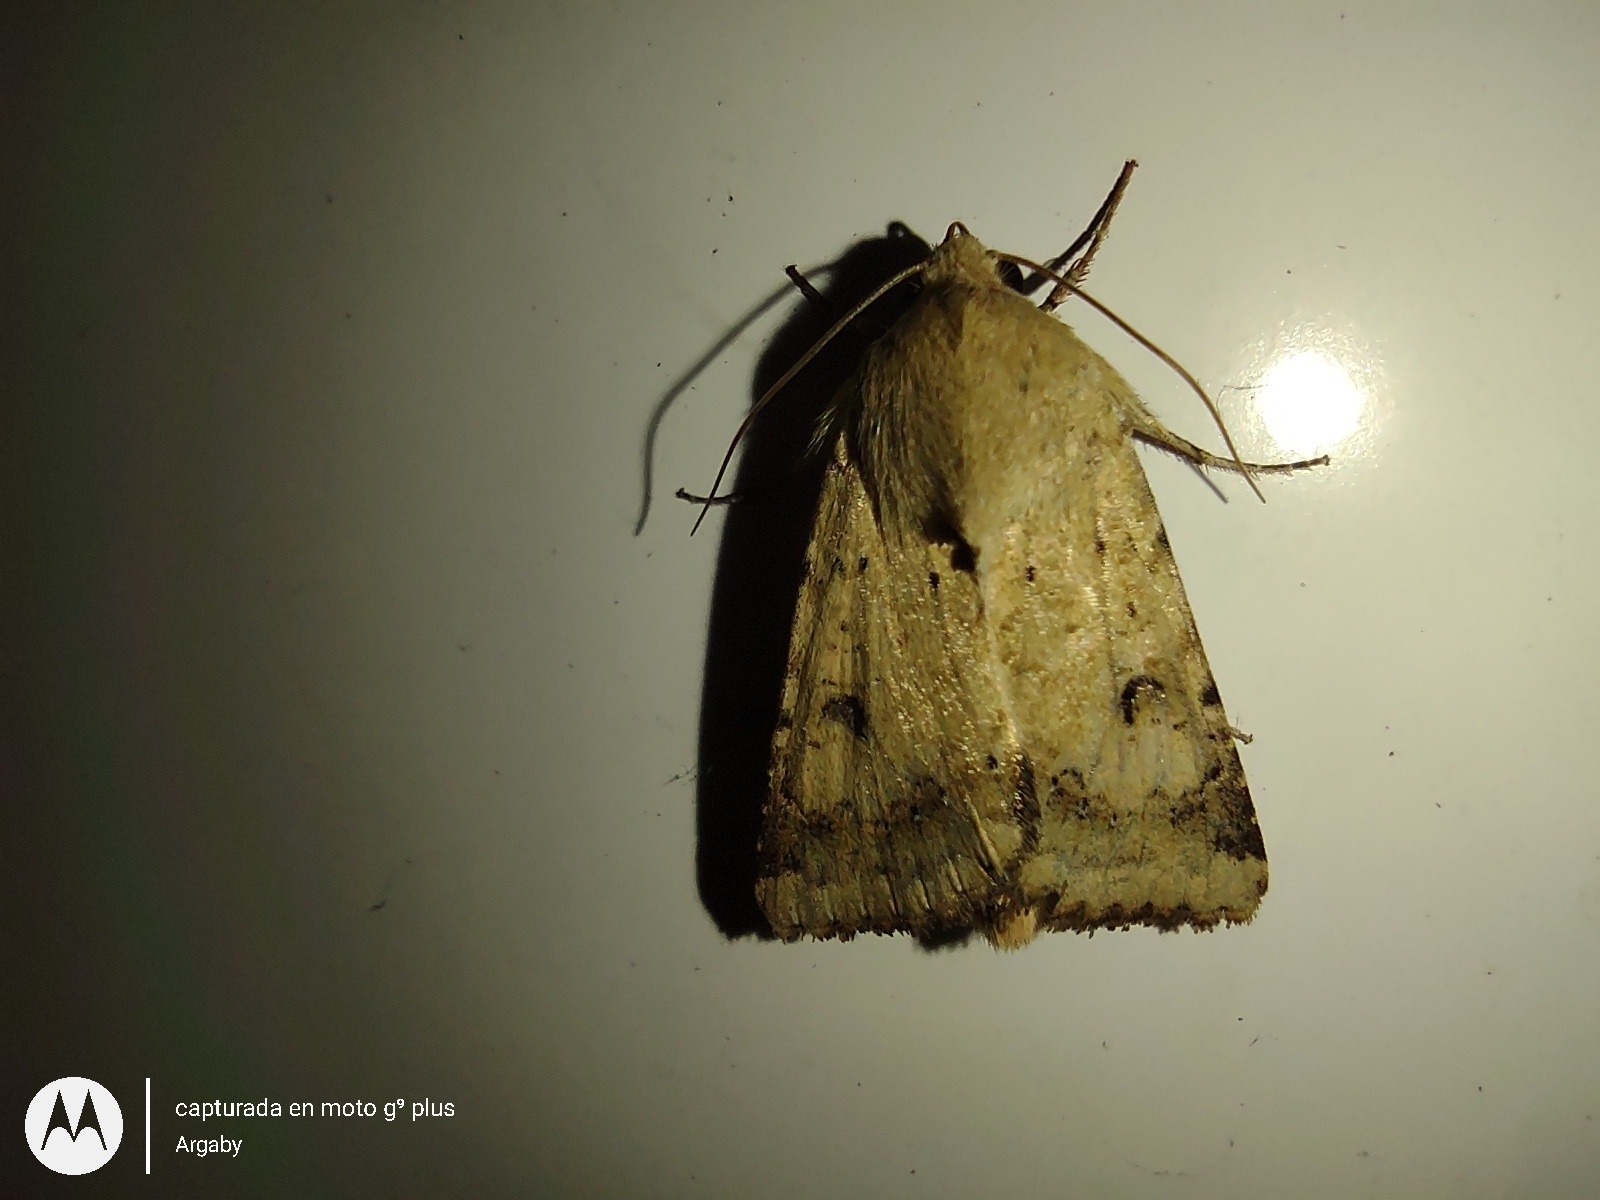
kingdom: Animalia
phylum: Arthropoda
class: Insecta
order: Lepidoptera
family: Noctuidae
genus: Helicoverpa
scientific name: Helicoverpa
